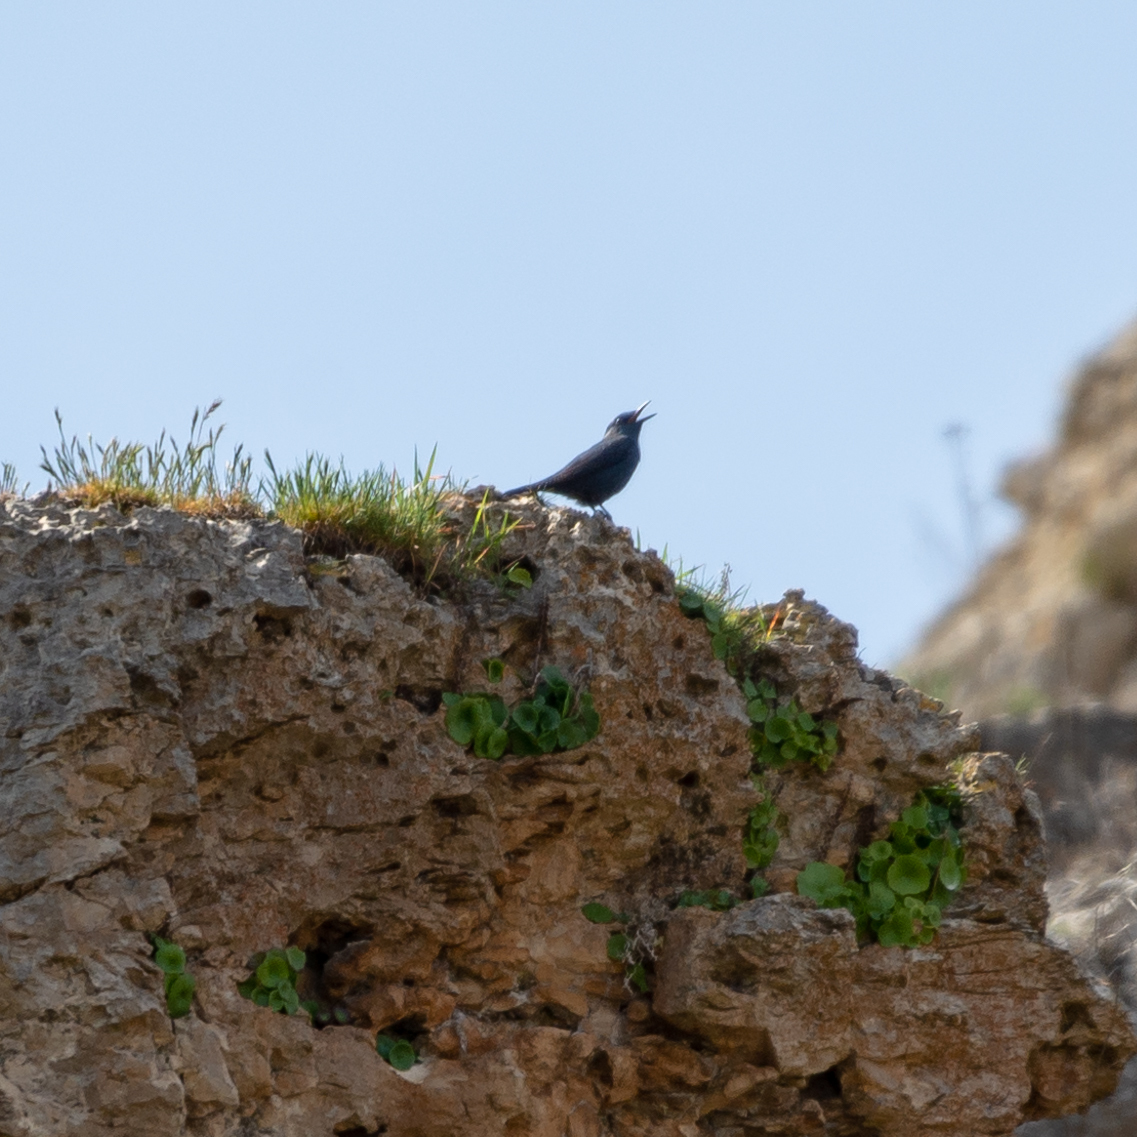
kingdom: Animalia
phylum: Chordata
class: Aves
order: Passeriformes
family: Muscicapidae
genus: Monticola
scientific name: Monticola solitarius
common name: Blue rock thrush
